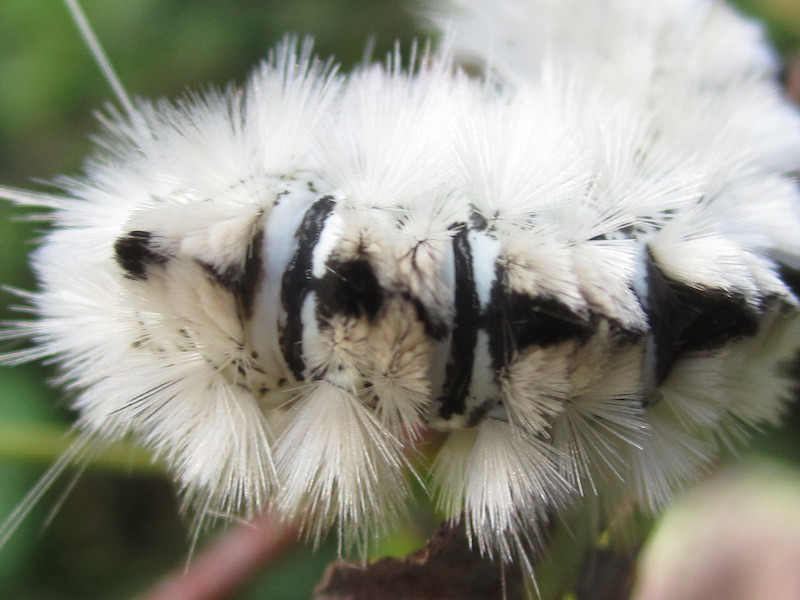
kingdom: Animalia
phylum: Arthropoda
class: Insecta
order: Lepidoptera
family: Erebidae
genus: Lophocampa
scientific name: Lophocampa caryae
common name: Hickory tussock moth
